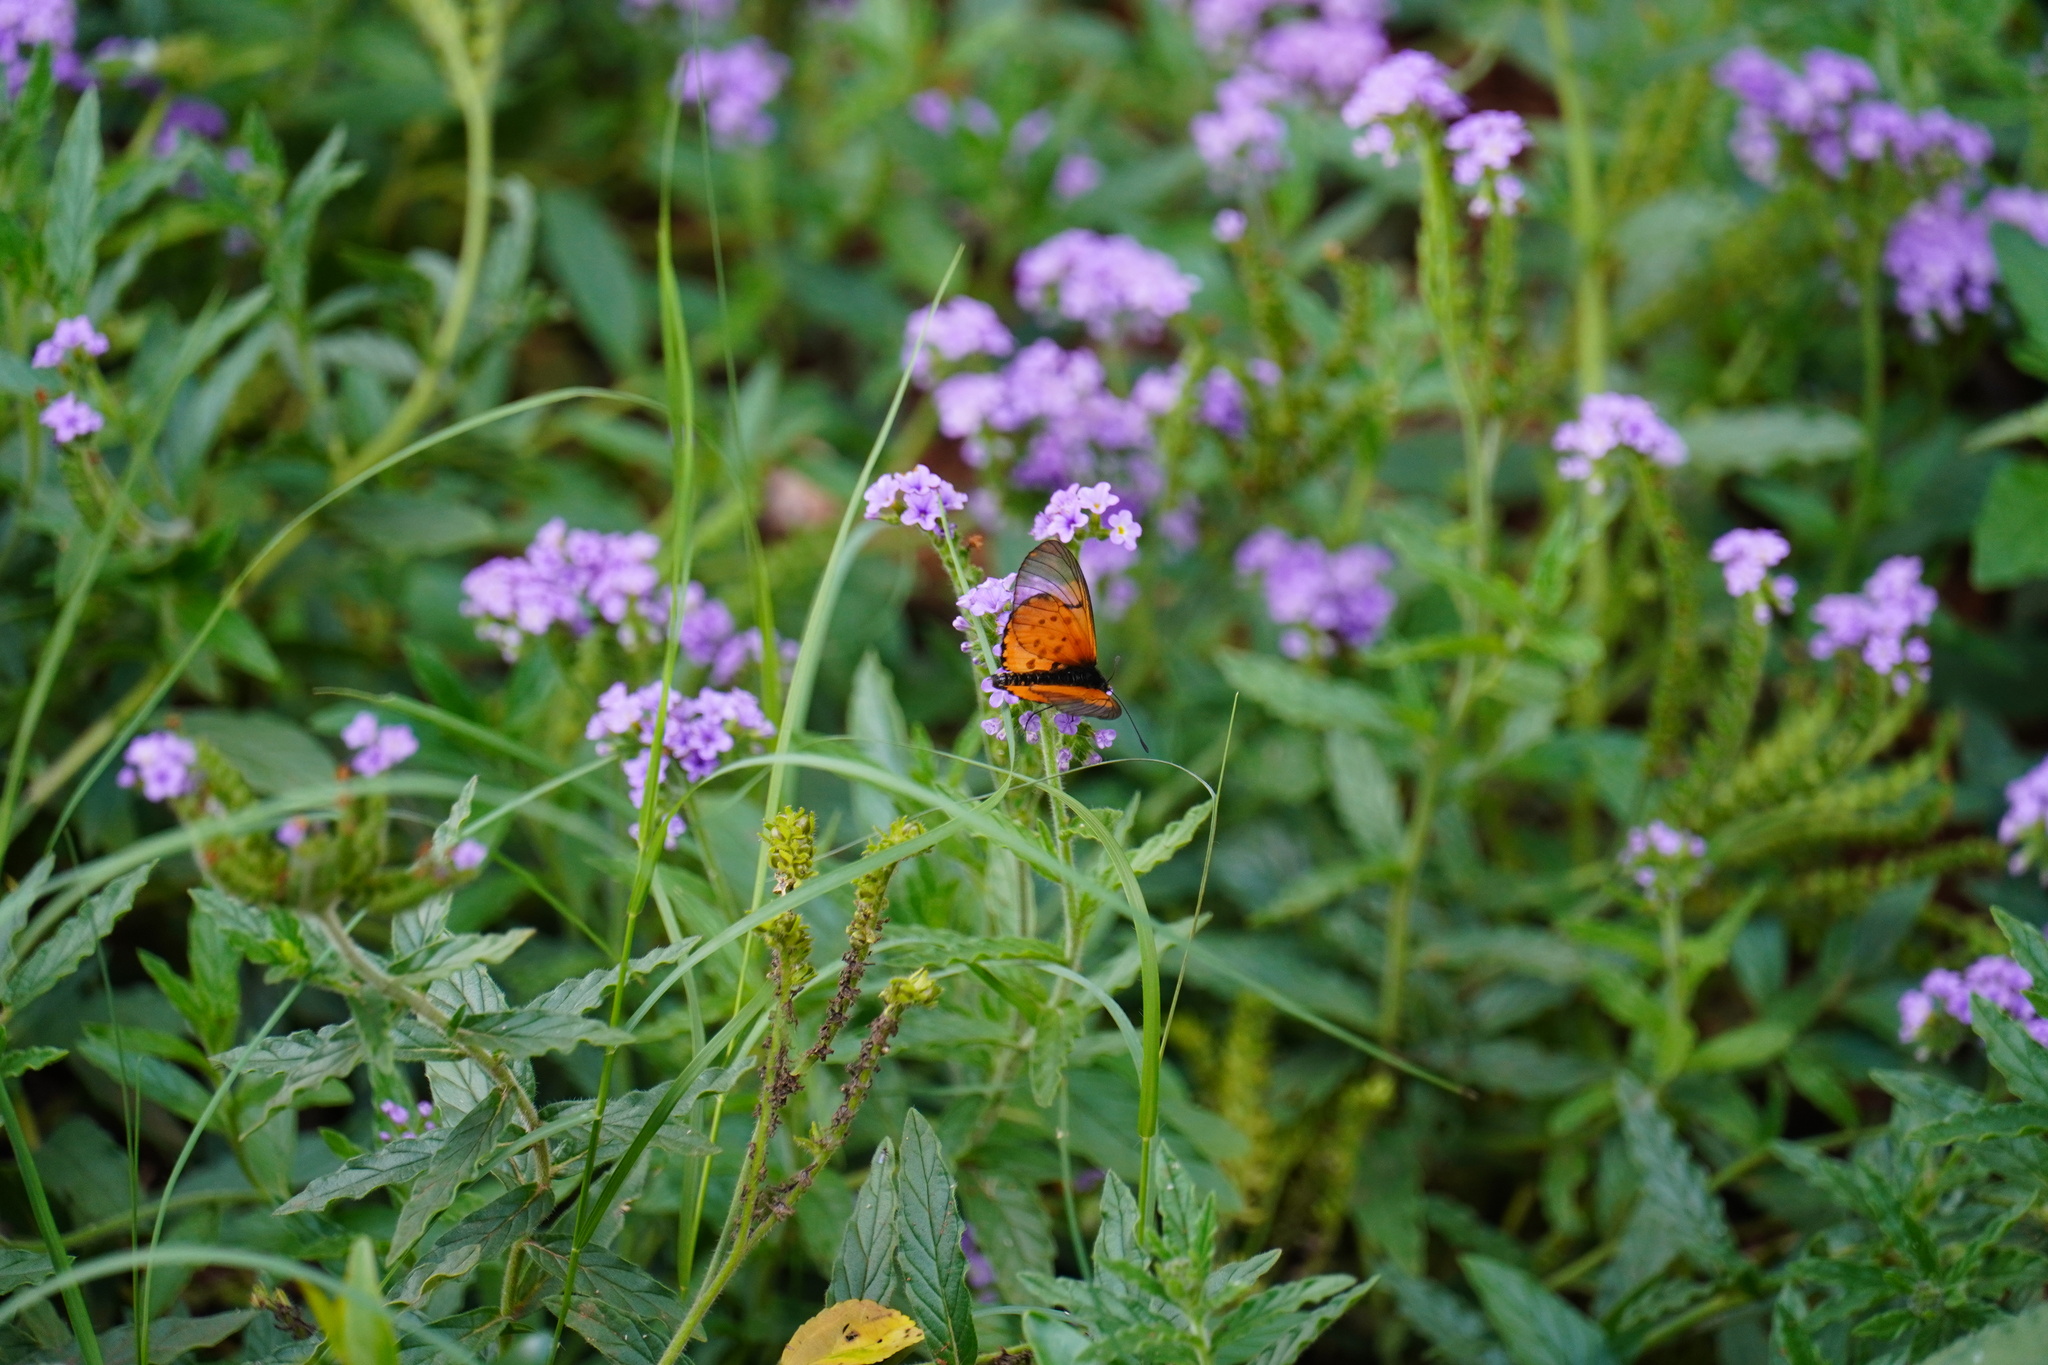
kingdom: Animalia
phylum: Arthropoda
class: Insecta
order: Lepidoptera
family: Nymphalidae
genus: Acraea
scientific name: Acraea horta
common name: Garden acraea
